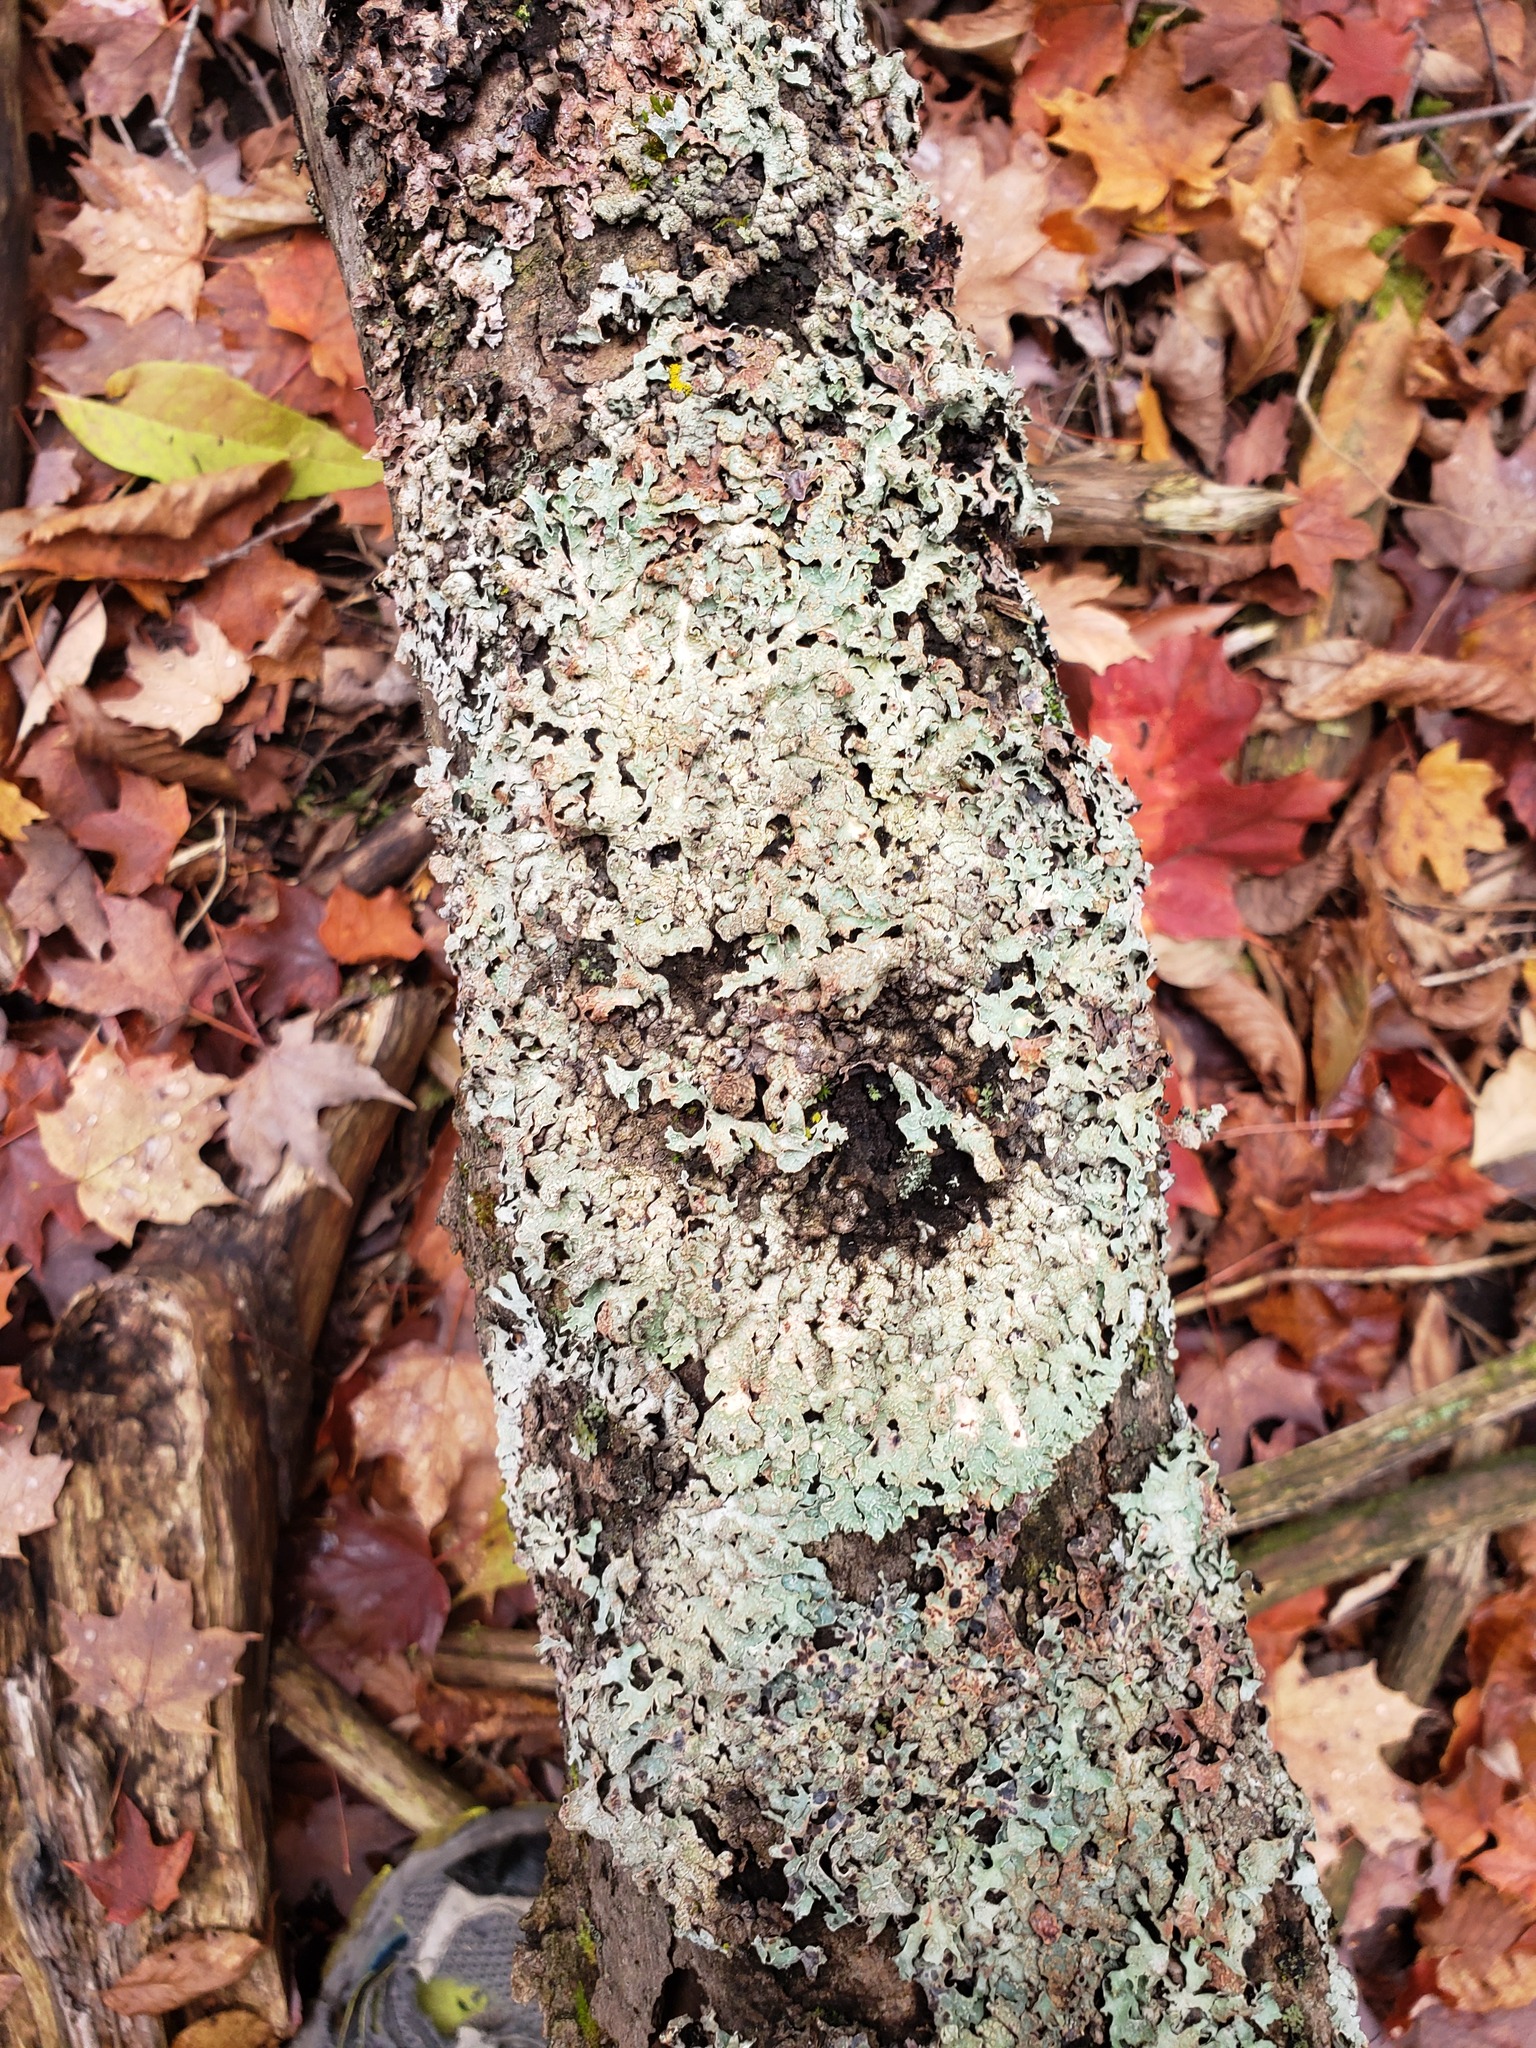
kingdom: Fungi
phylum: Ascomycota
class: Lecanoromycetes
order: Lecanorales
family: Parmeliaceae
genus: Parmelia
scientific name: Parmelia squarrosa
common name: Bottle brush shield lichen
